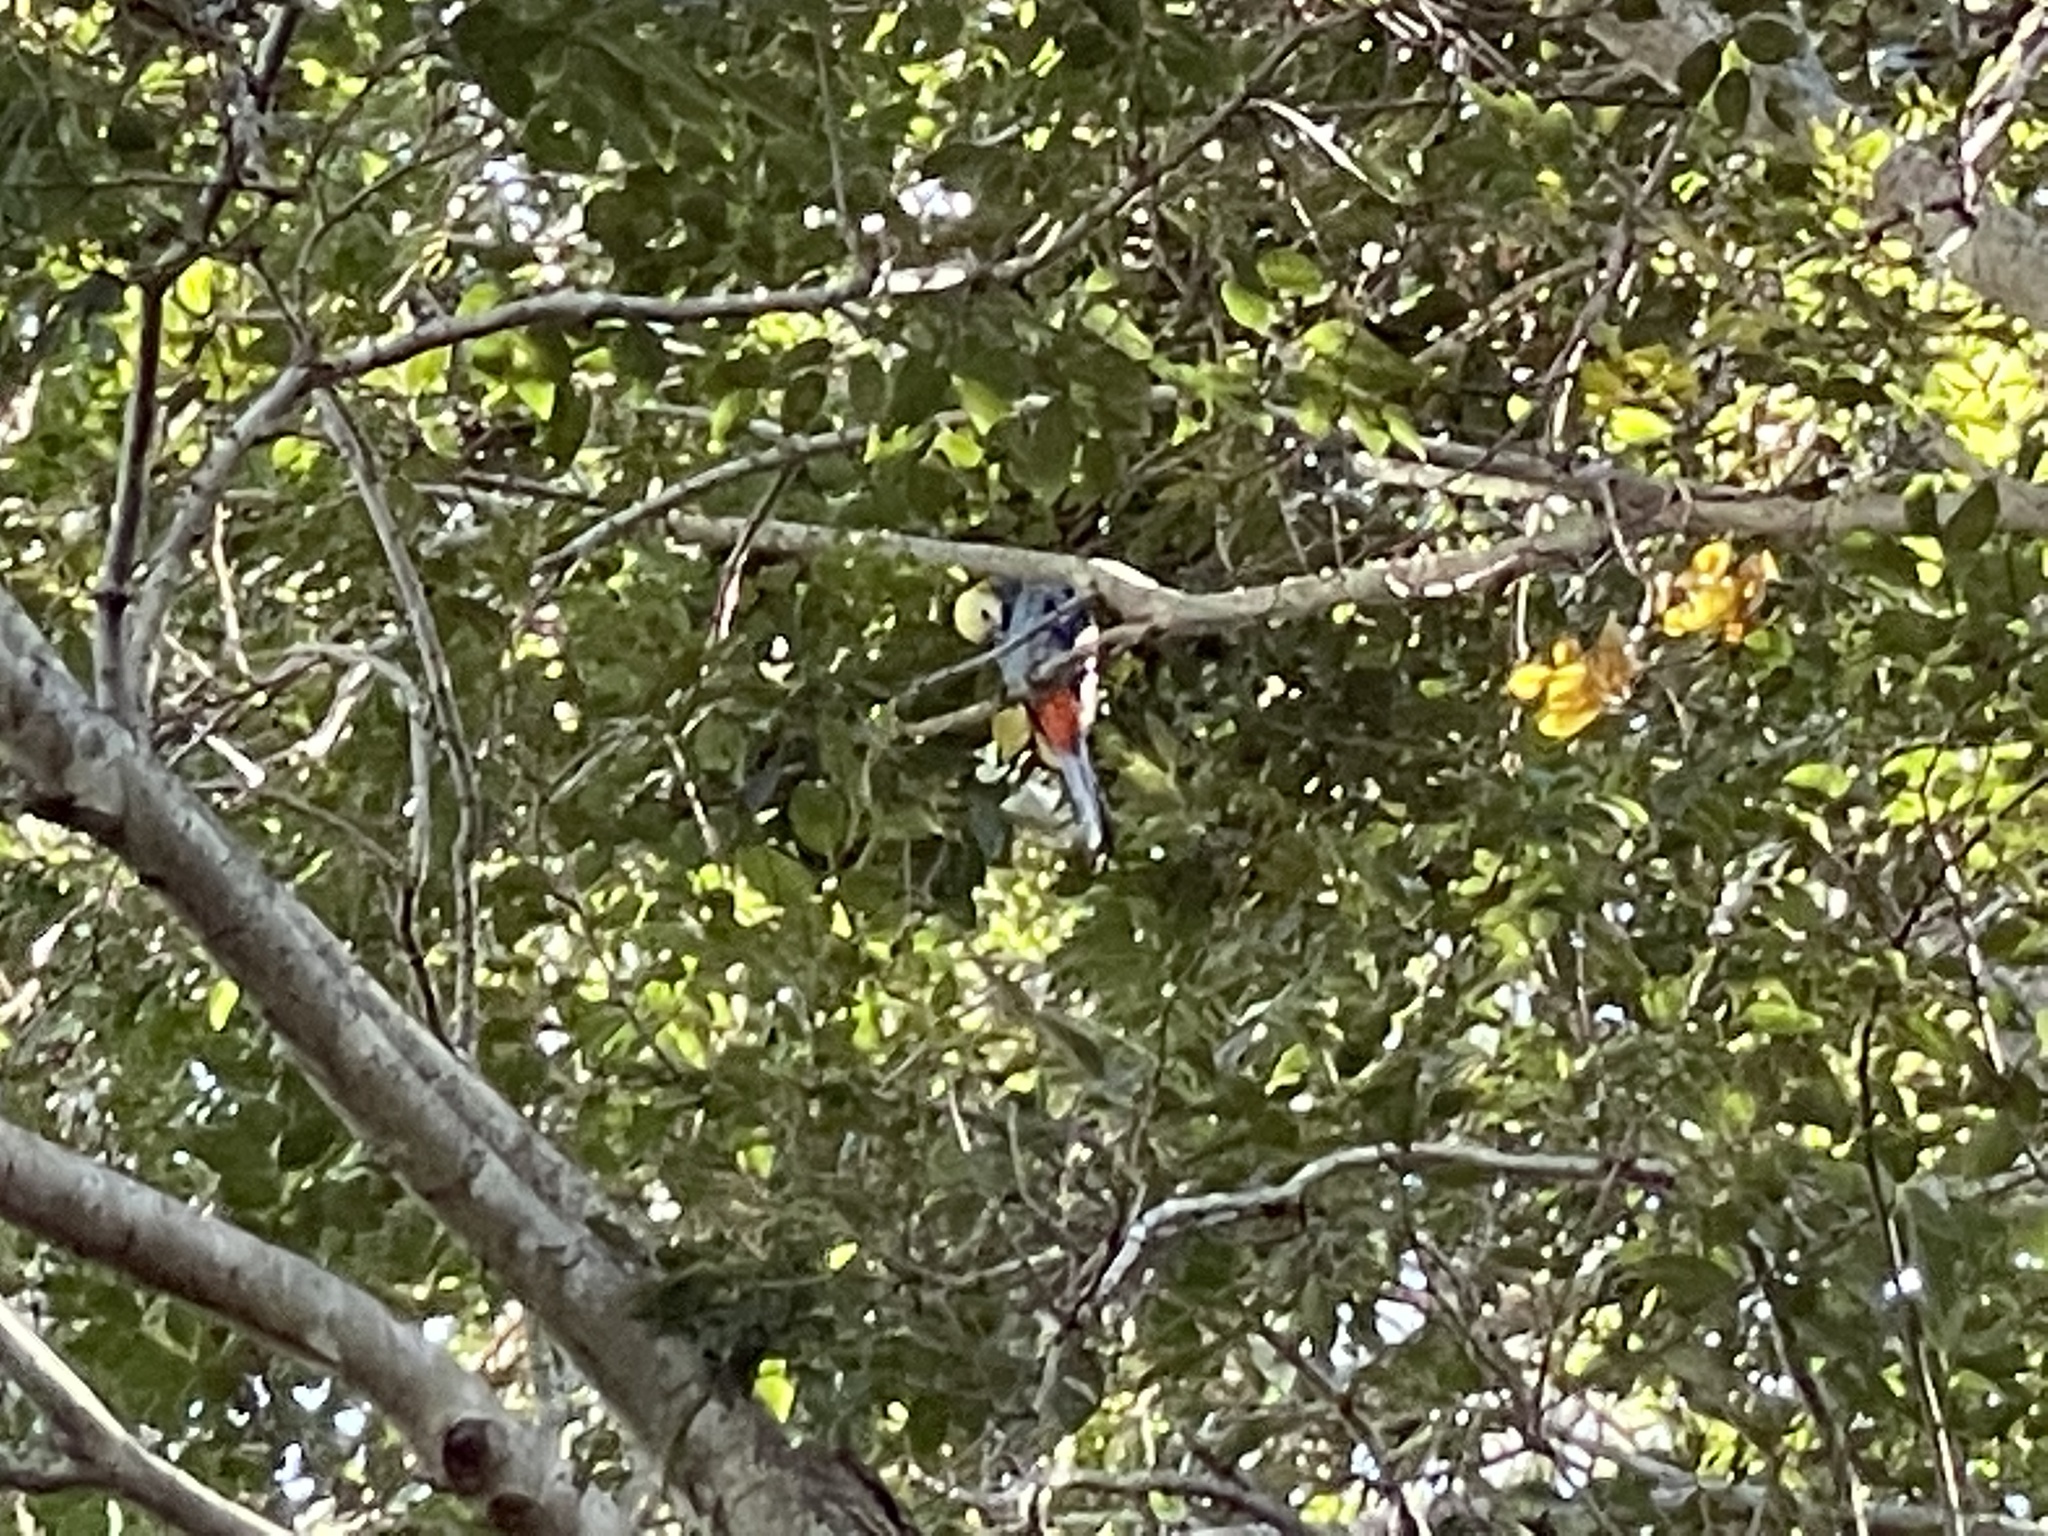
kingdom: Animalia
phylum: Chordata
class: Aves
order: Psittaciformes
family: Psittacidae
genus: Platycercus
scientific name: Platycercus adscitus
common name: Pale-headed rosella
